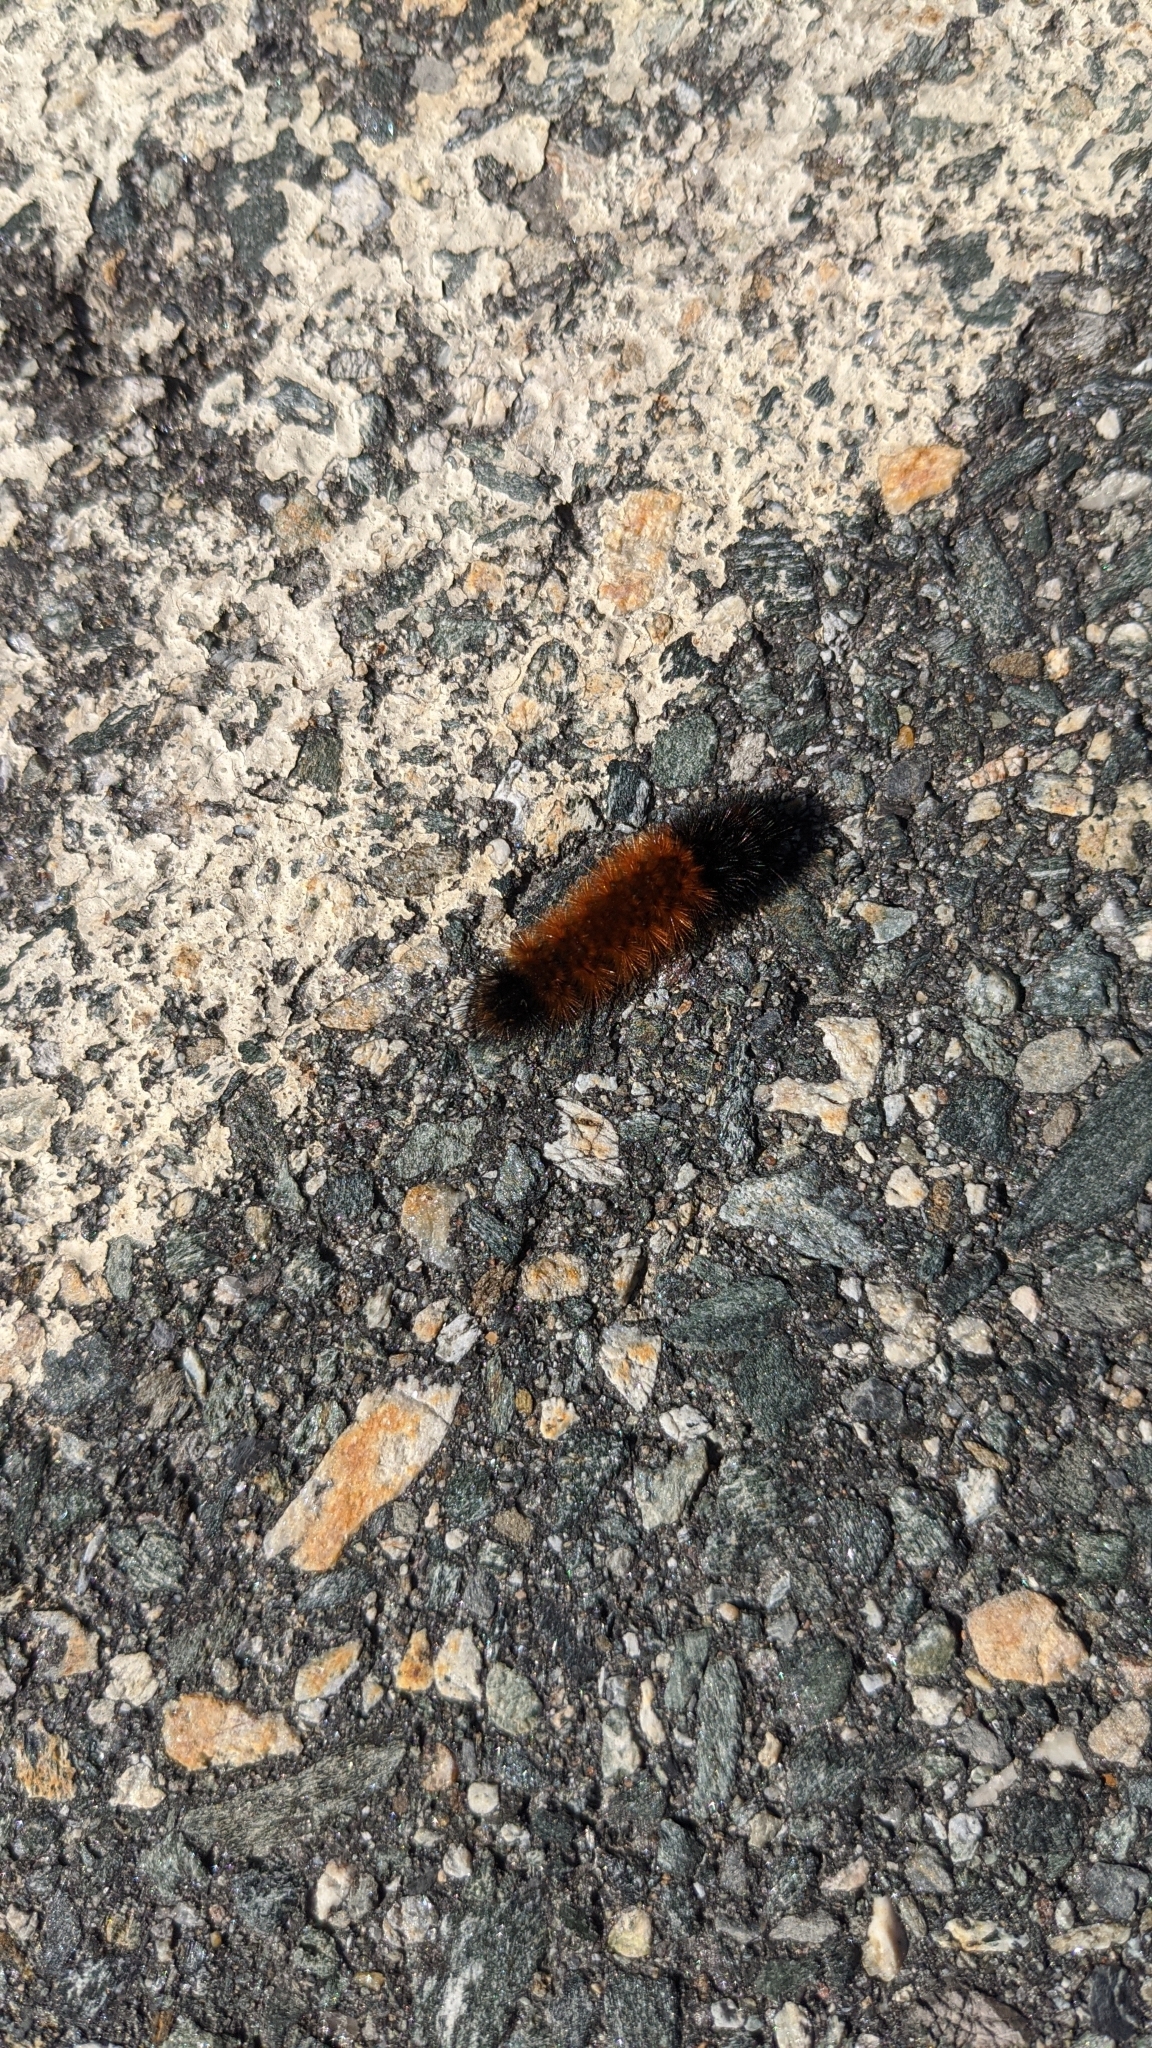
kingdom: Animalia
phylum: Arthropoda
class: Insecta
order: Lepidoptera
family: Erebidae
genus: Pyrrharctia
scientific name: Pyrrharctia isabella
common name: Isabella tiger moth
